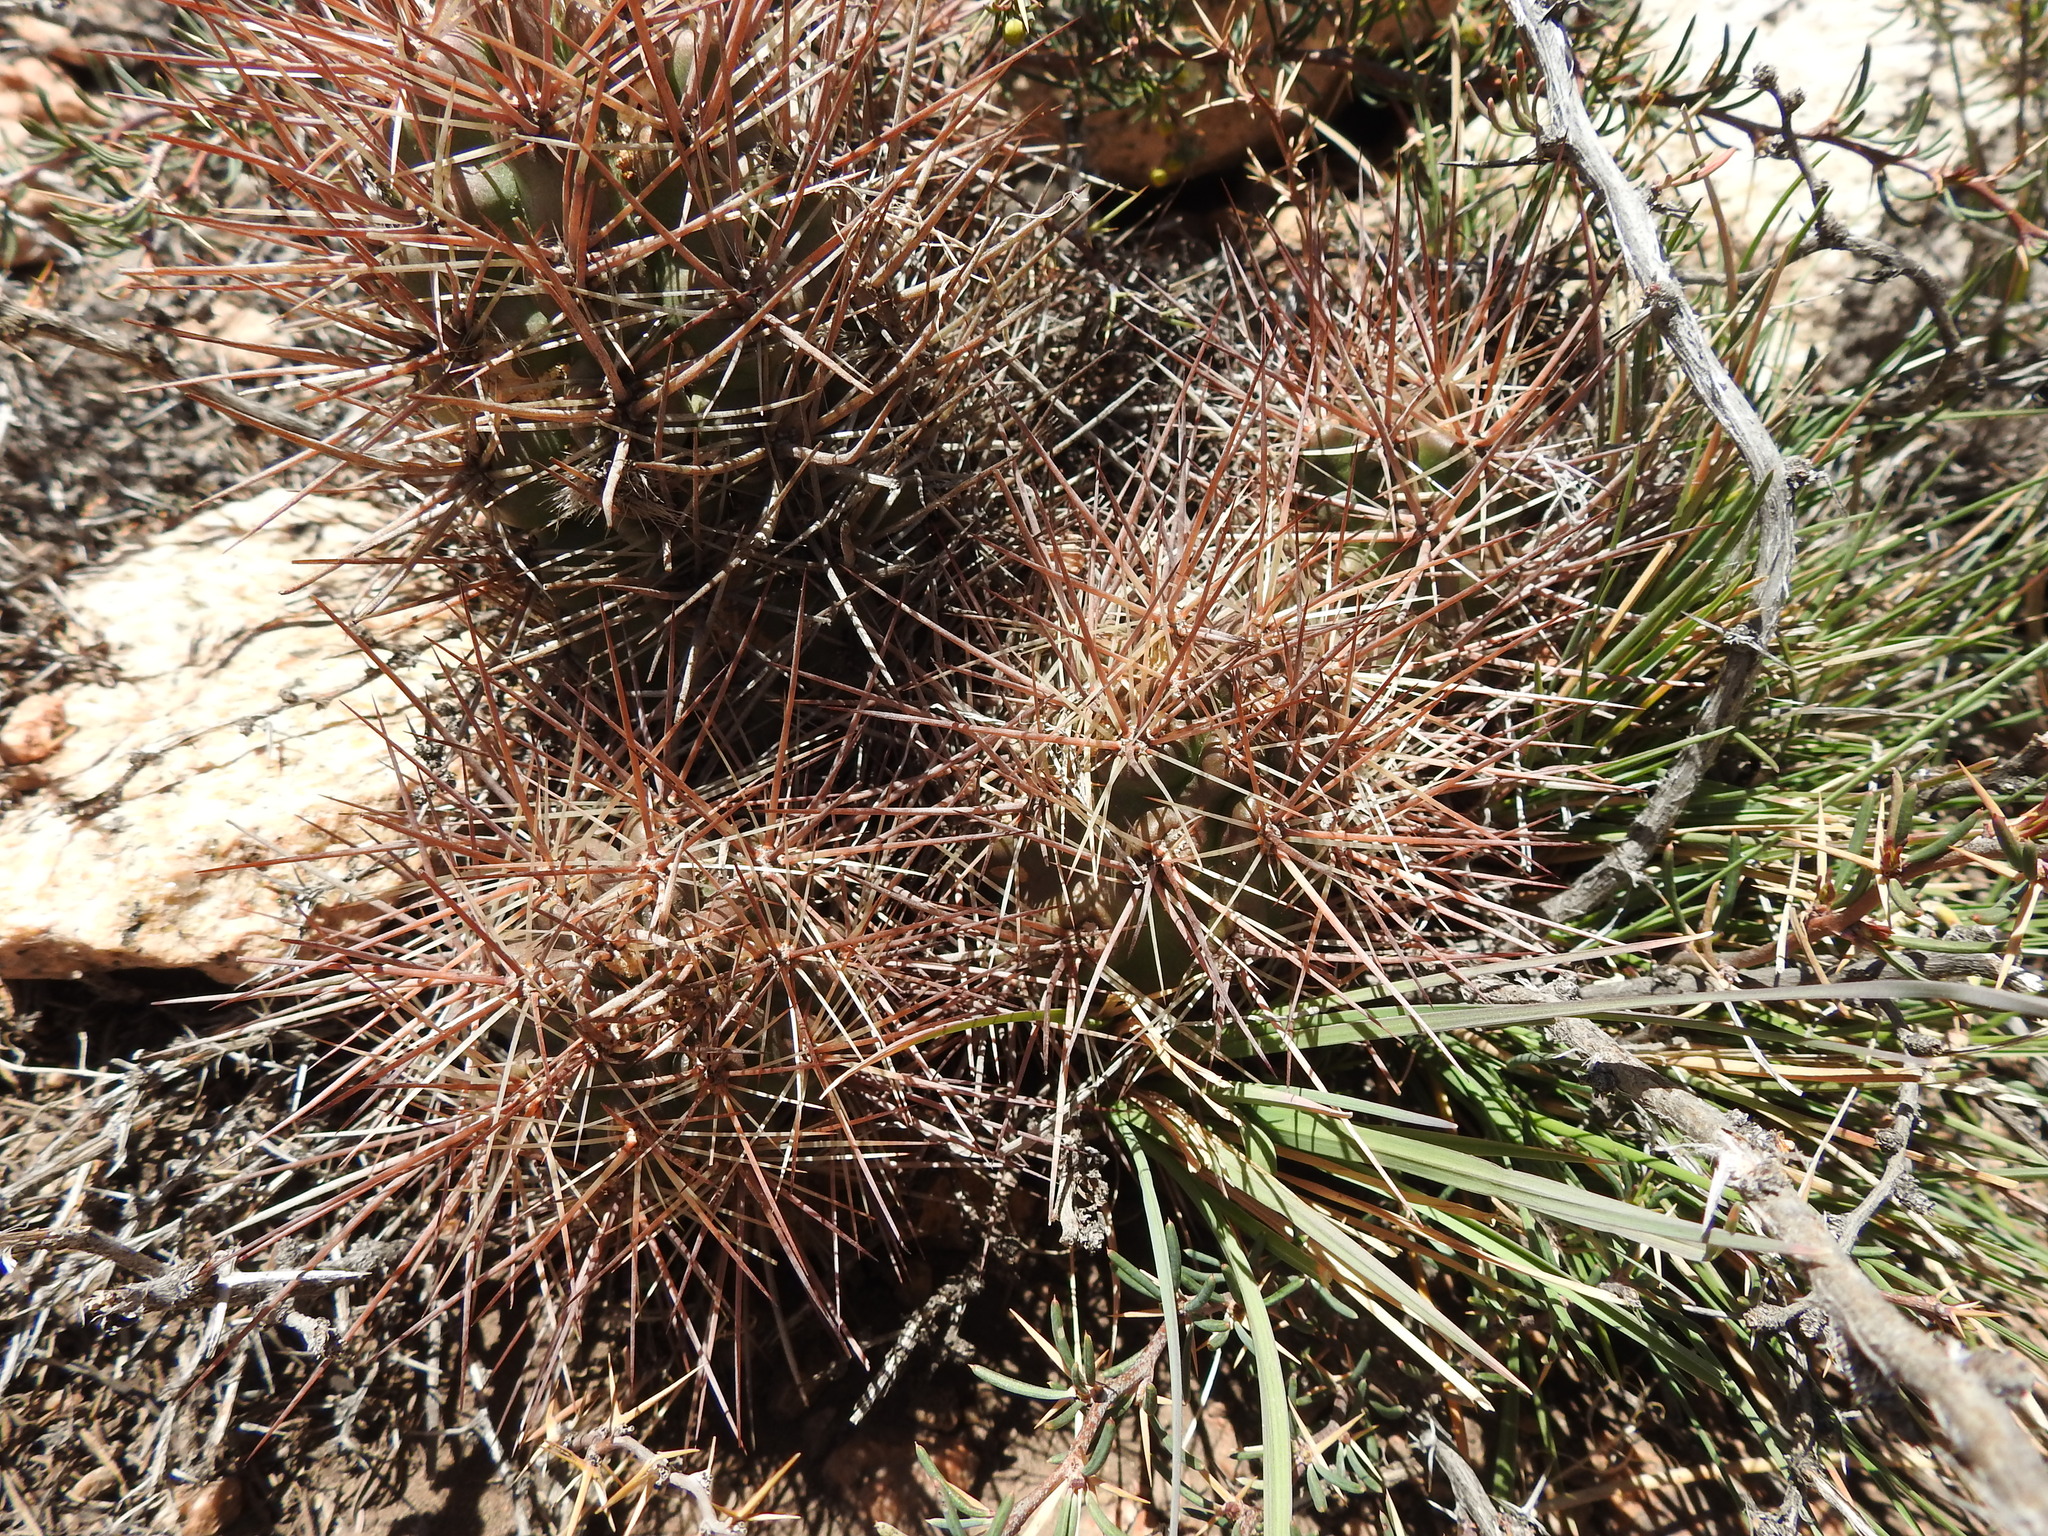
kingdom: Plantae
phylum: Tracheophyta
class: Magnoliopsida
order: Caryophyllales
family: Cactaceae
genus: Austrocactus
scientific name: Austrocactus philippii
